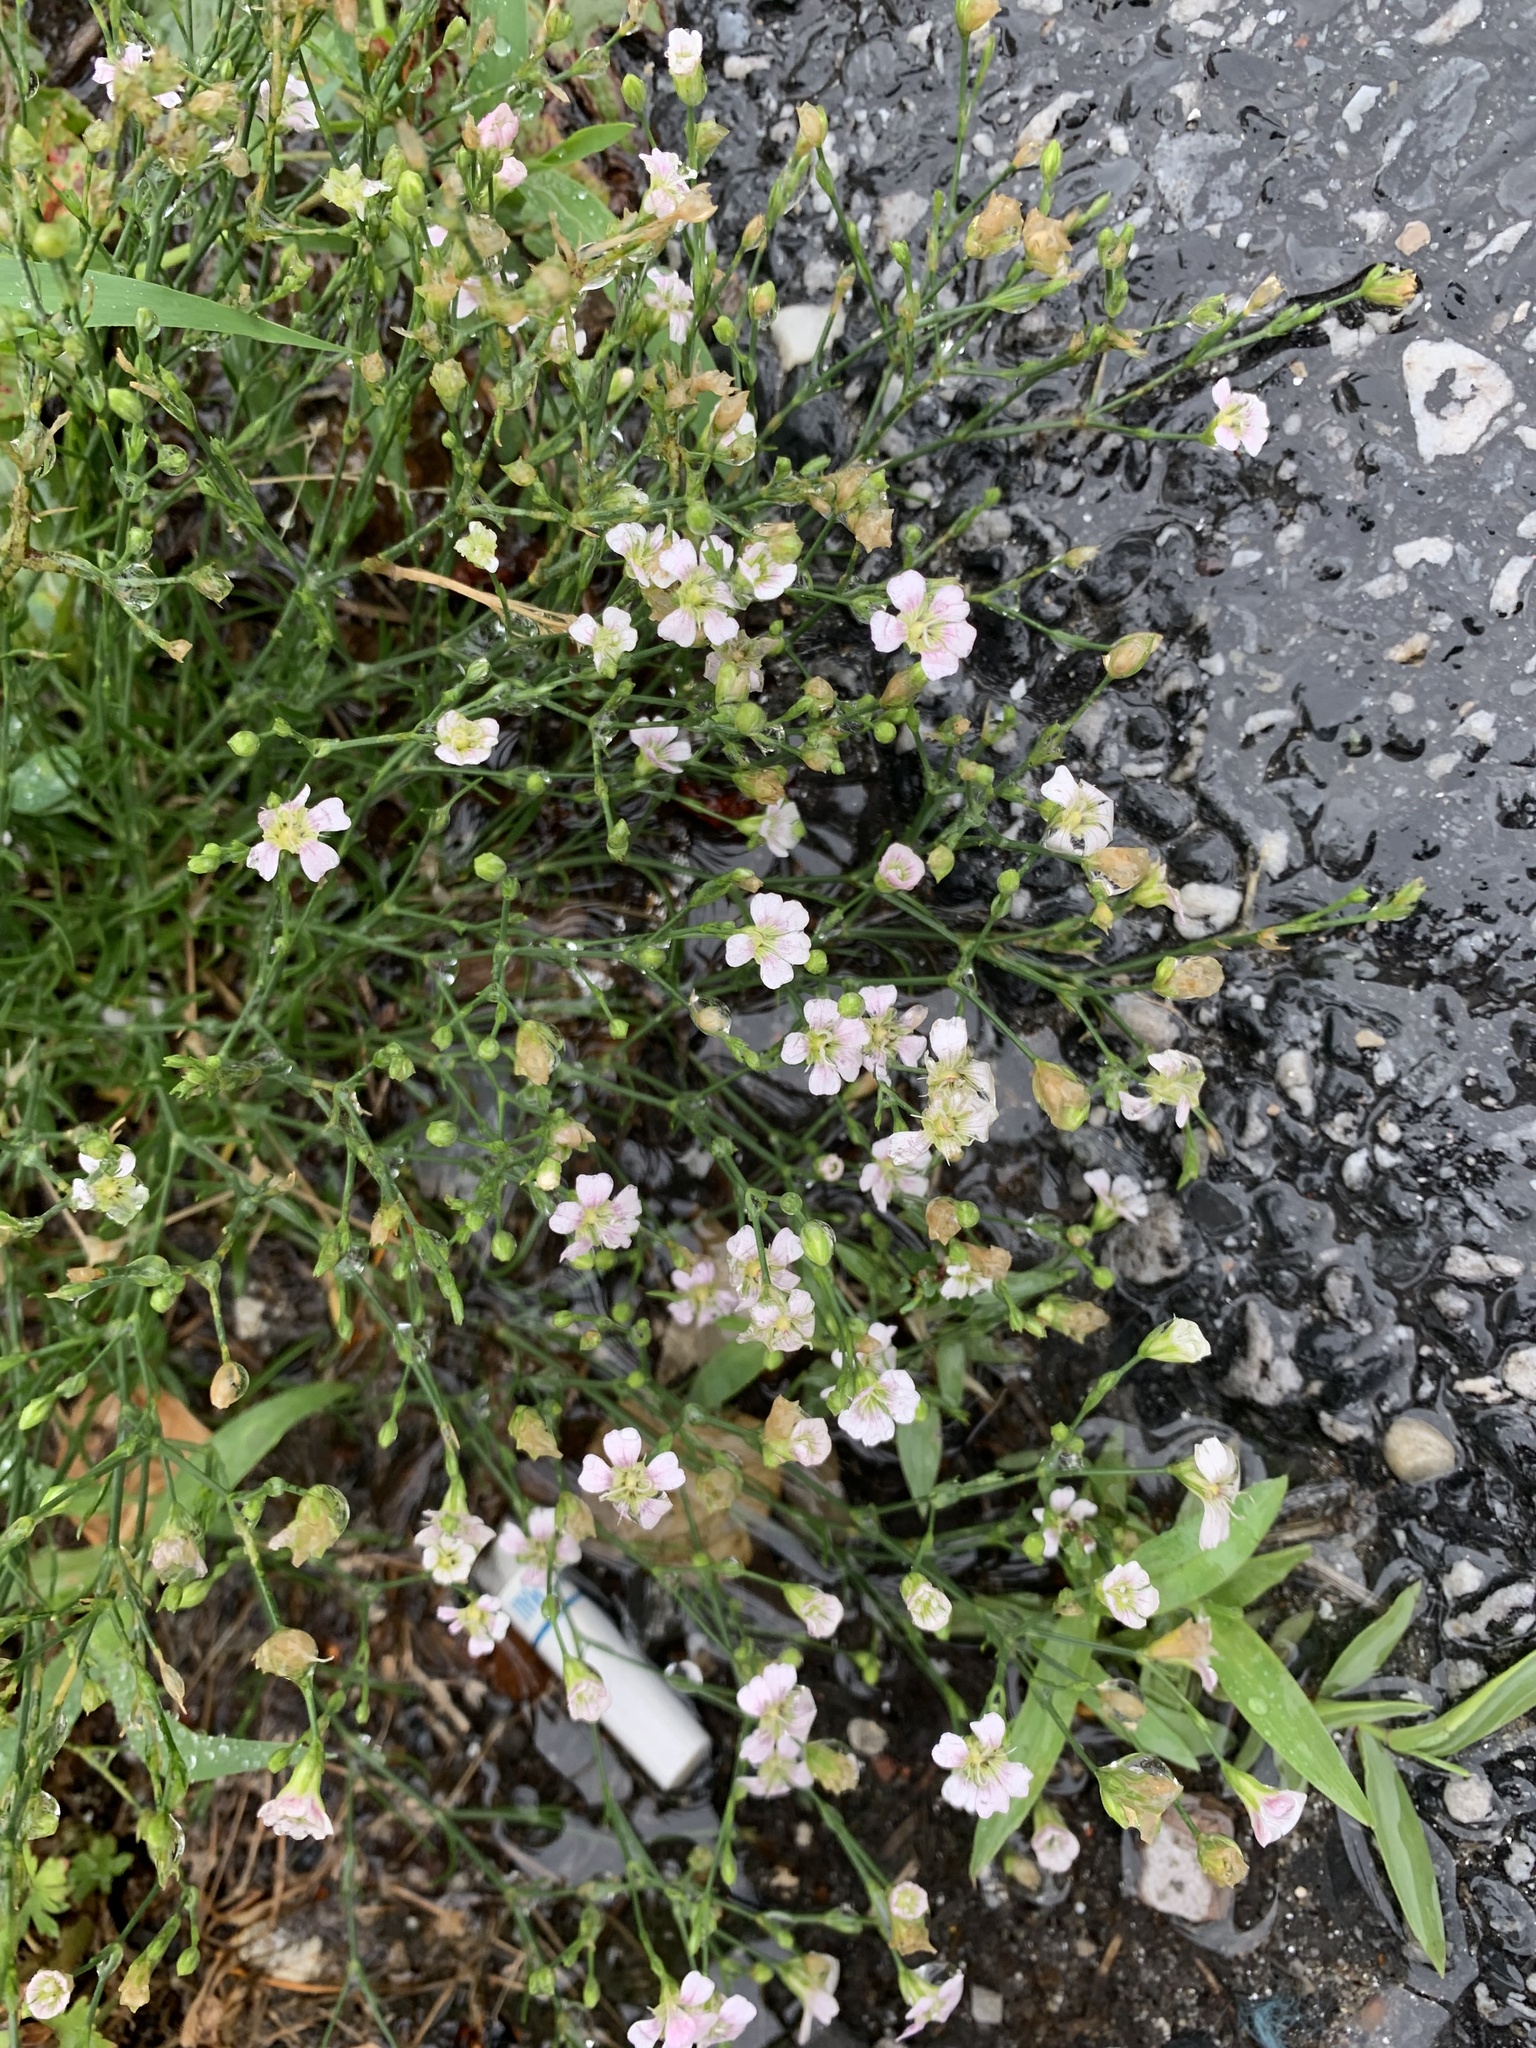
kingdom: Plantae
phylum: Tracheophyta
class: Magnoliopsida
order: Caryophyllales
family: Caryophyllaceae
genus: Petrorhagia
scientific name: Petrorhagia saxifraga
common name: Tunicflower
